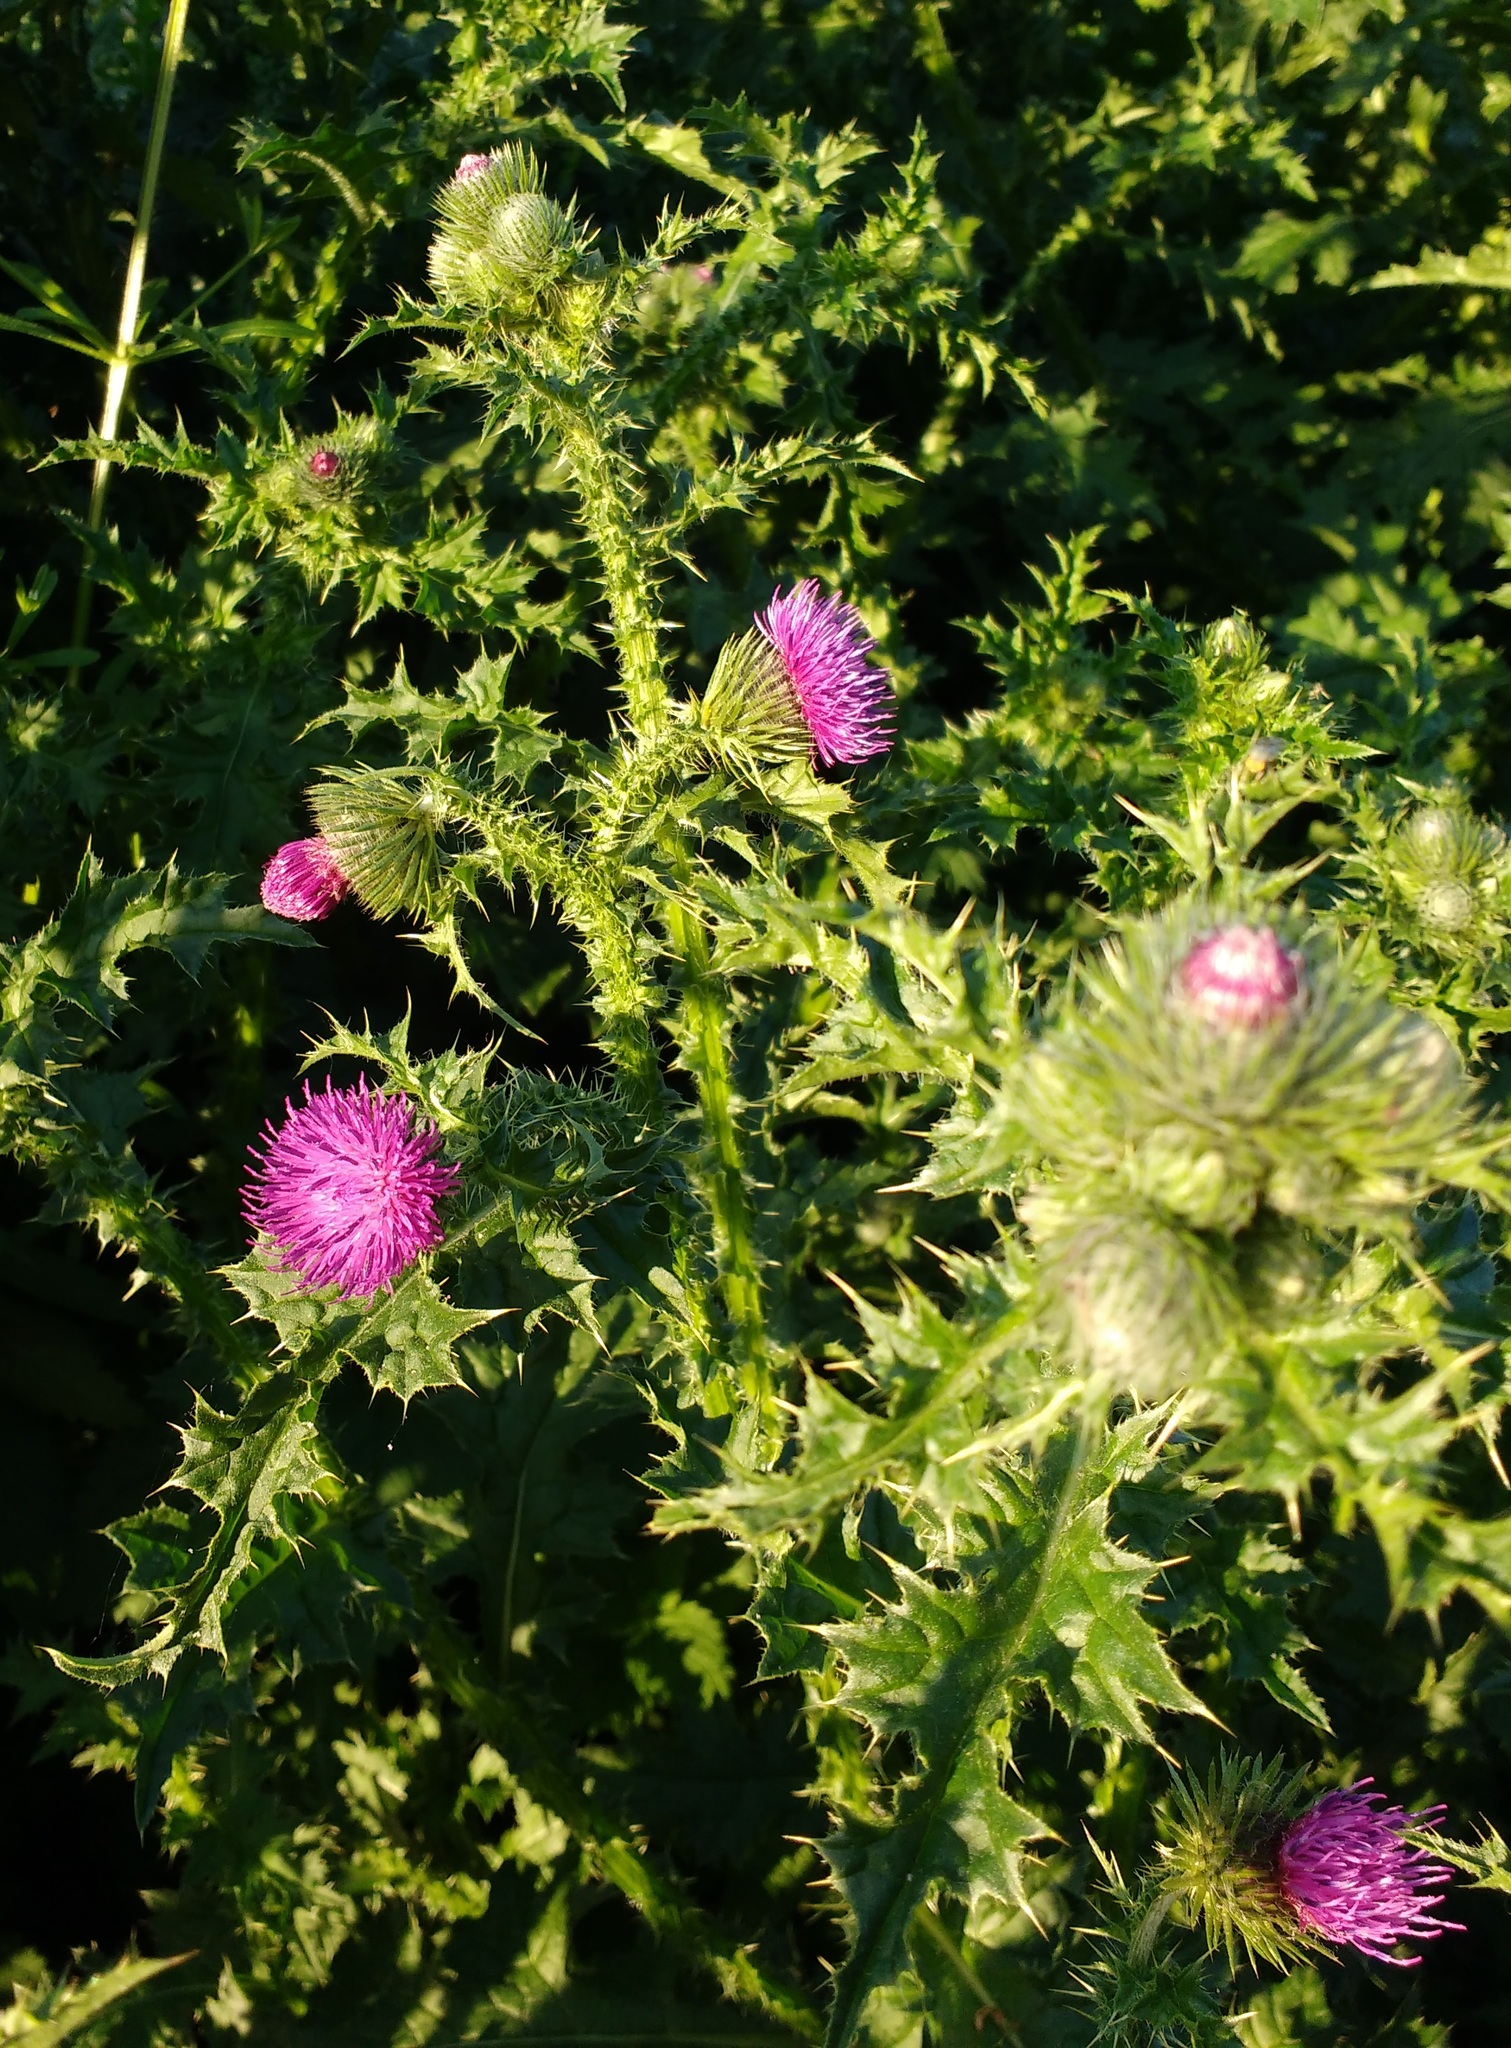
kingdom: Plantae
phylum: Tracheophyta
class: Magnoliopsida
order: Asterales
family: Asteraceae
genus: Carduus
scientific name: Carduus crispus
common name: Welted thistle
